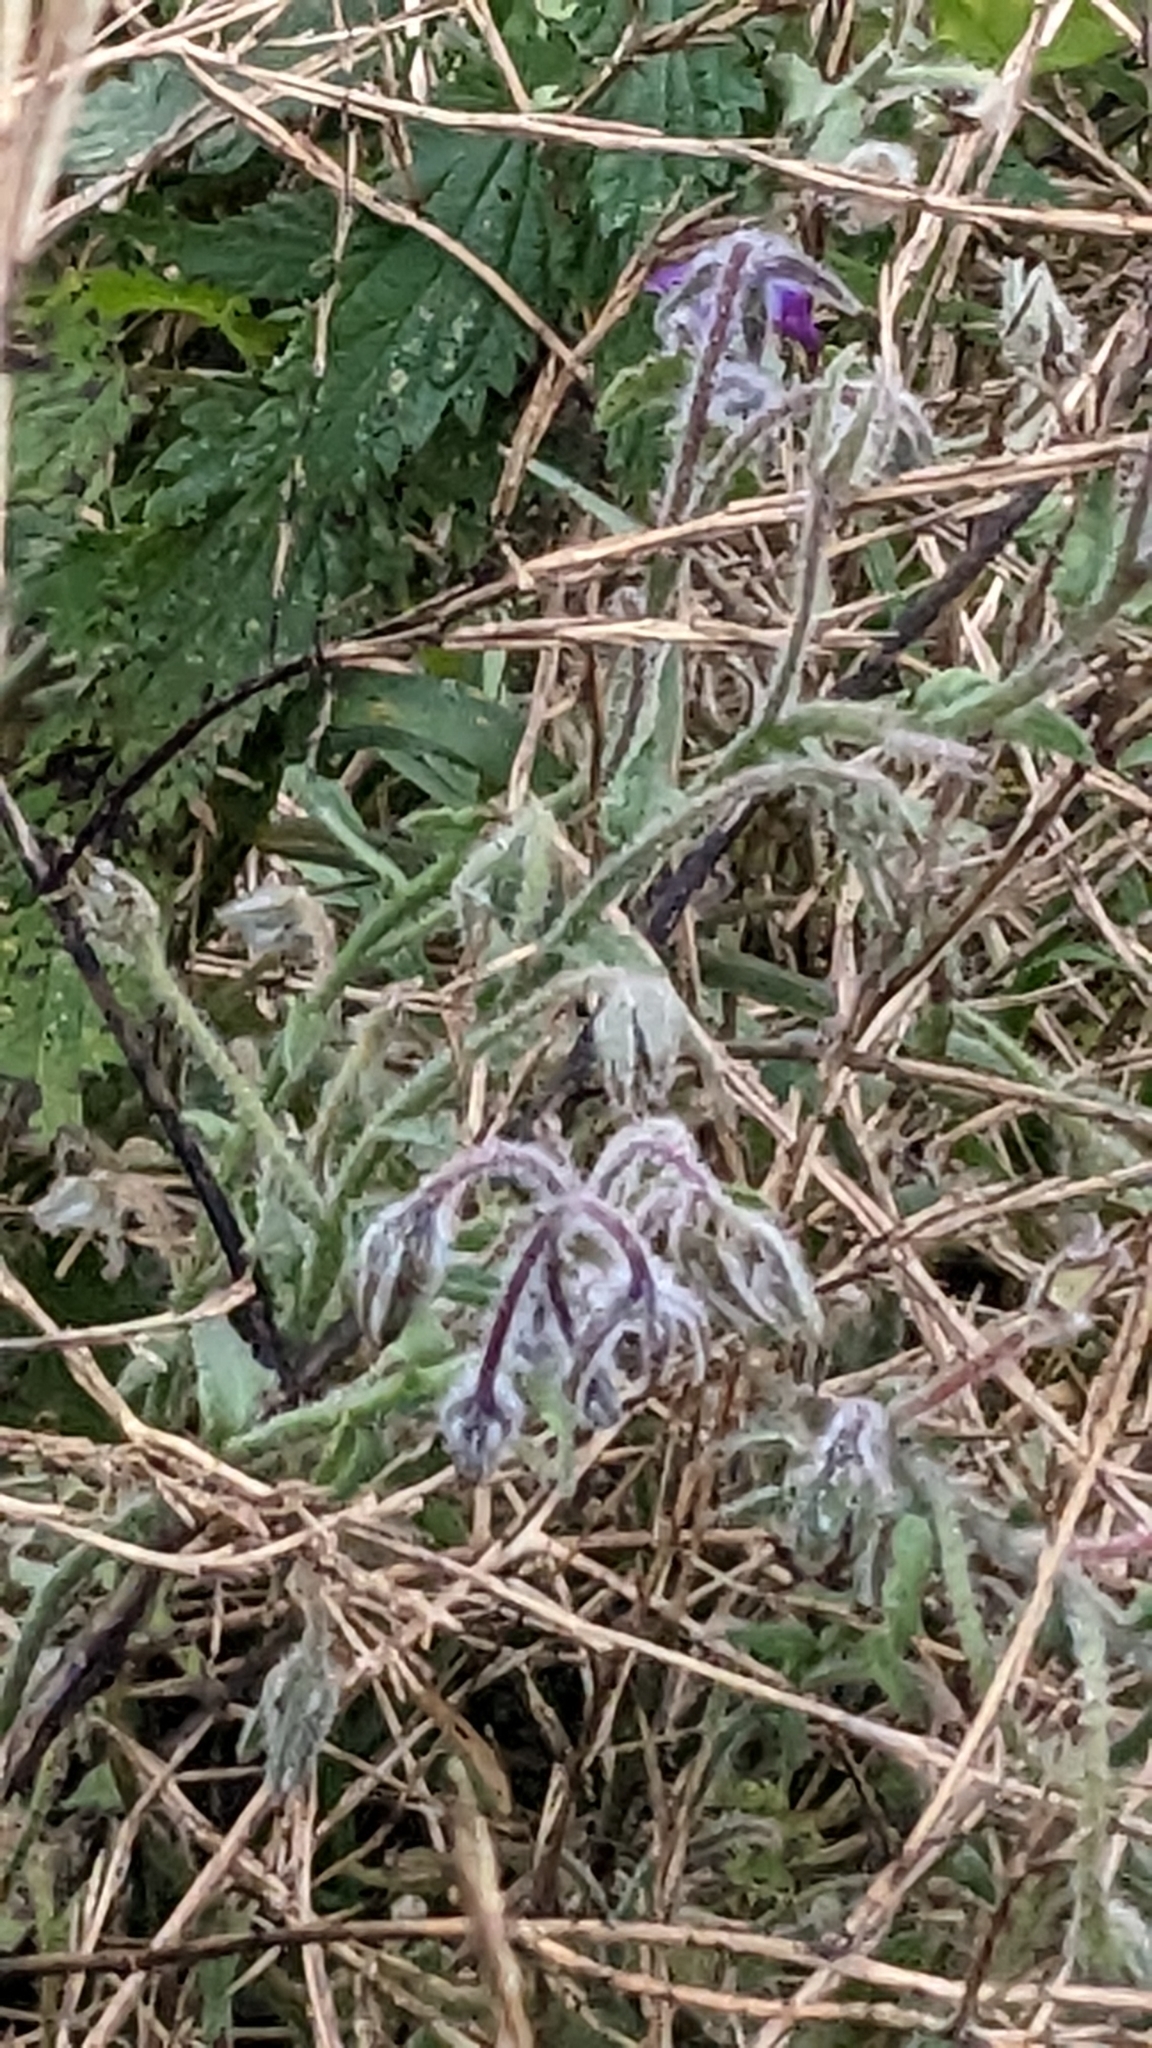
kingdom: Plantae
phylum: Tracheophyta
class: Magnoliopsida
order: Boraginales
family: Boraginaceae
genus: Borago
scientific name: Borago officinalis
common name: Borage
